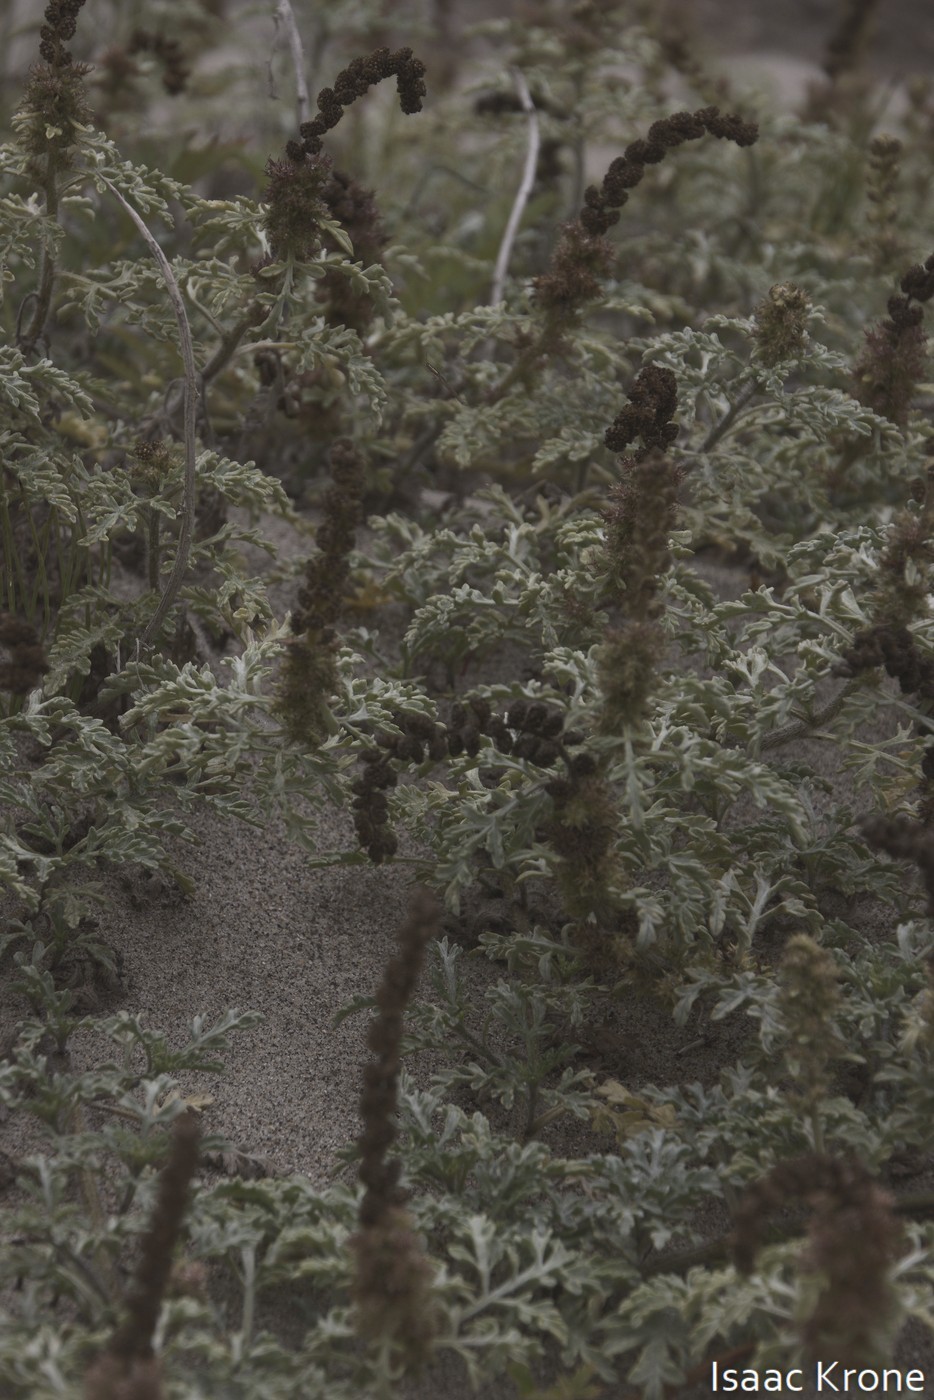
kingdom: Plantae
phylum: Tracheophyta
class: Magnoliopsida
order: Asterales
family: Asteraceae
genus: Ambrosia
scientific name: Ambrosia chamissonis
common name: Beachbur
